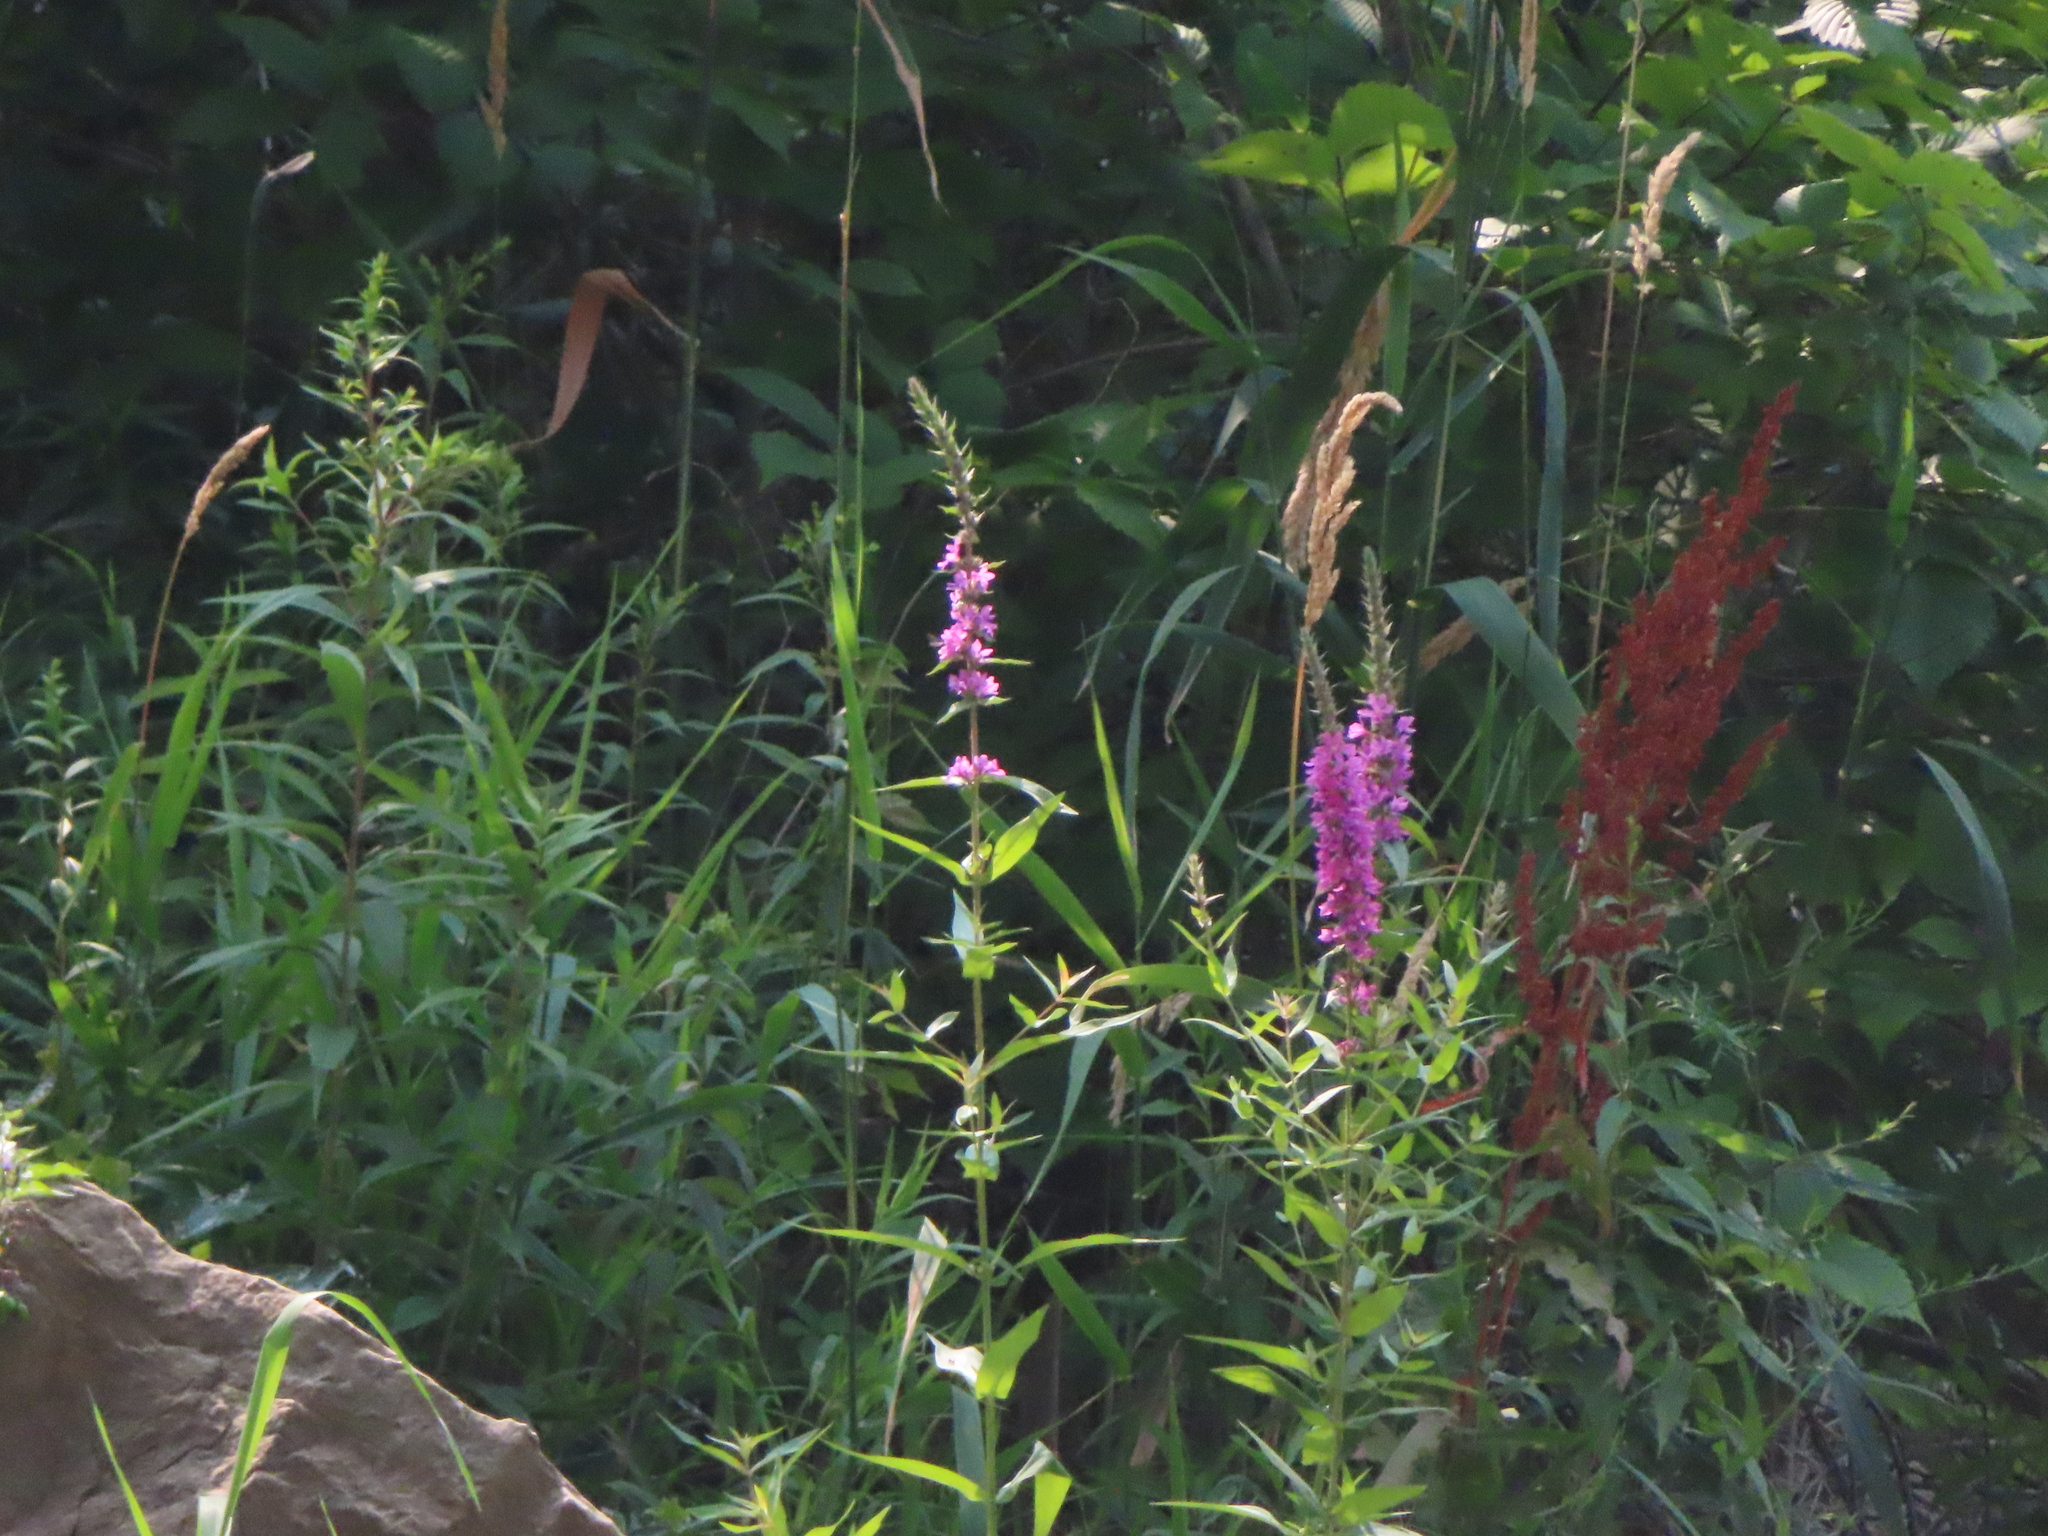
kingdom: Plantae
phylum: Tracheophyta
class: Magnoliopsida
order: Myrtales
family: Lythraceae
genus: Lythrum
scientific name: Lythrum salicaria
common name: Purple loosestrife
